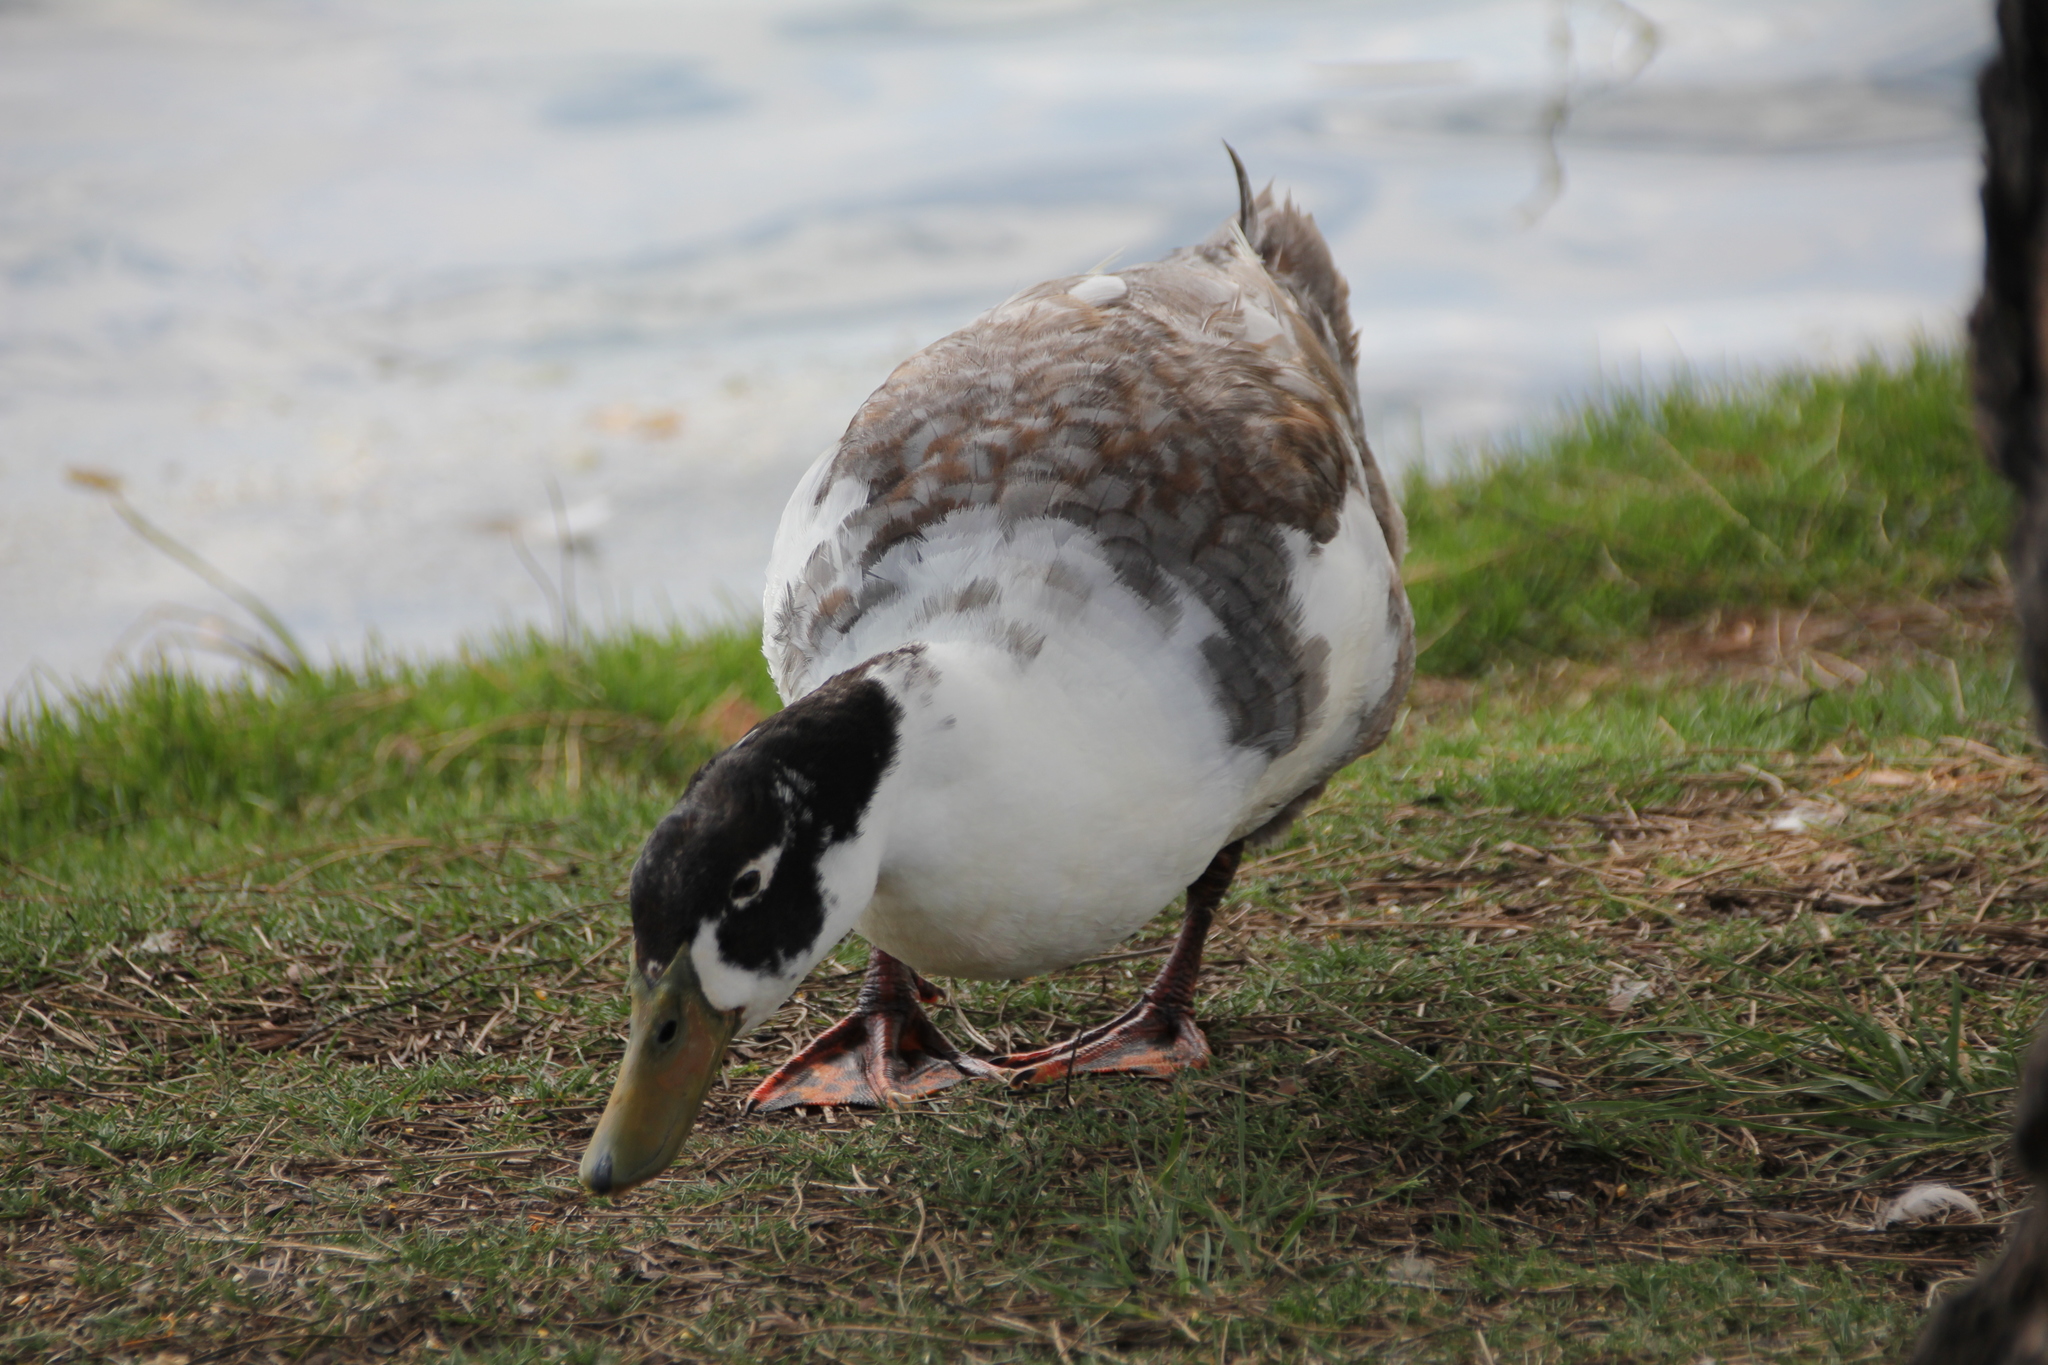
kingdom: Animalia
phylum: Chordata
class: Aves
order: Anseriformes
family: Anatidae
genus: Anas
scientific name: Anas platyrhynchos
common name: Mallard
